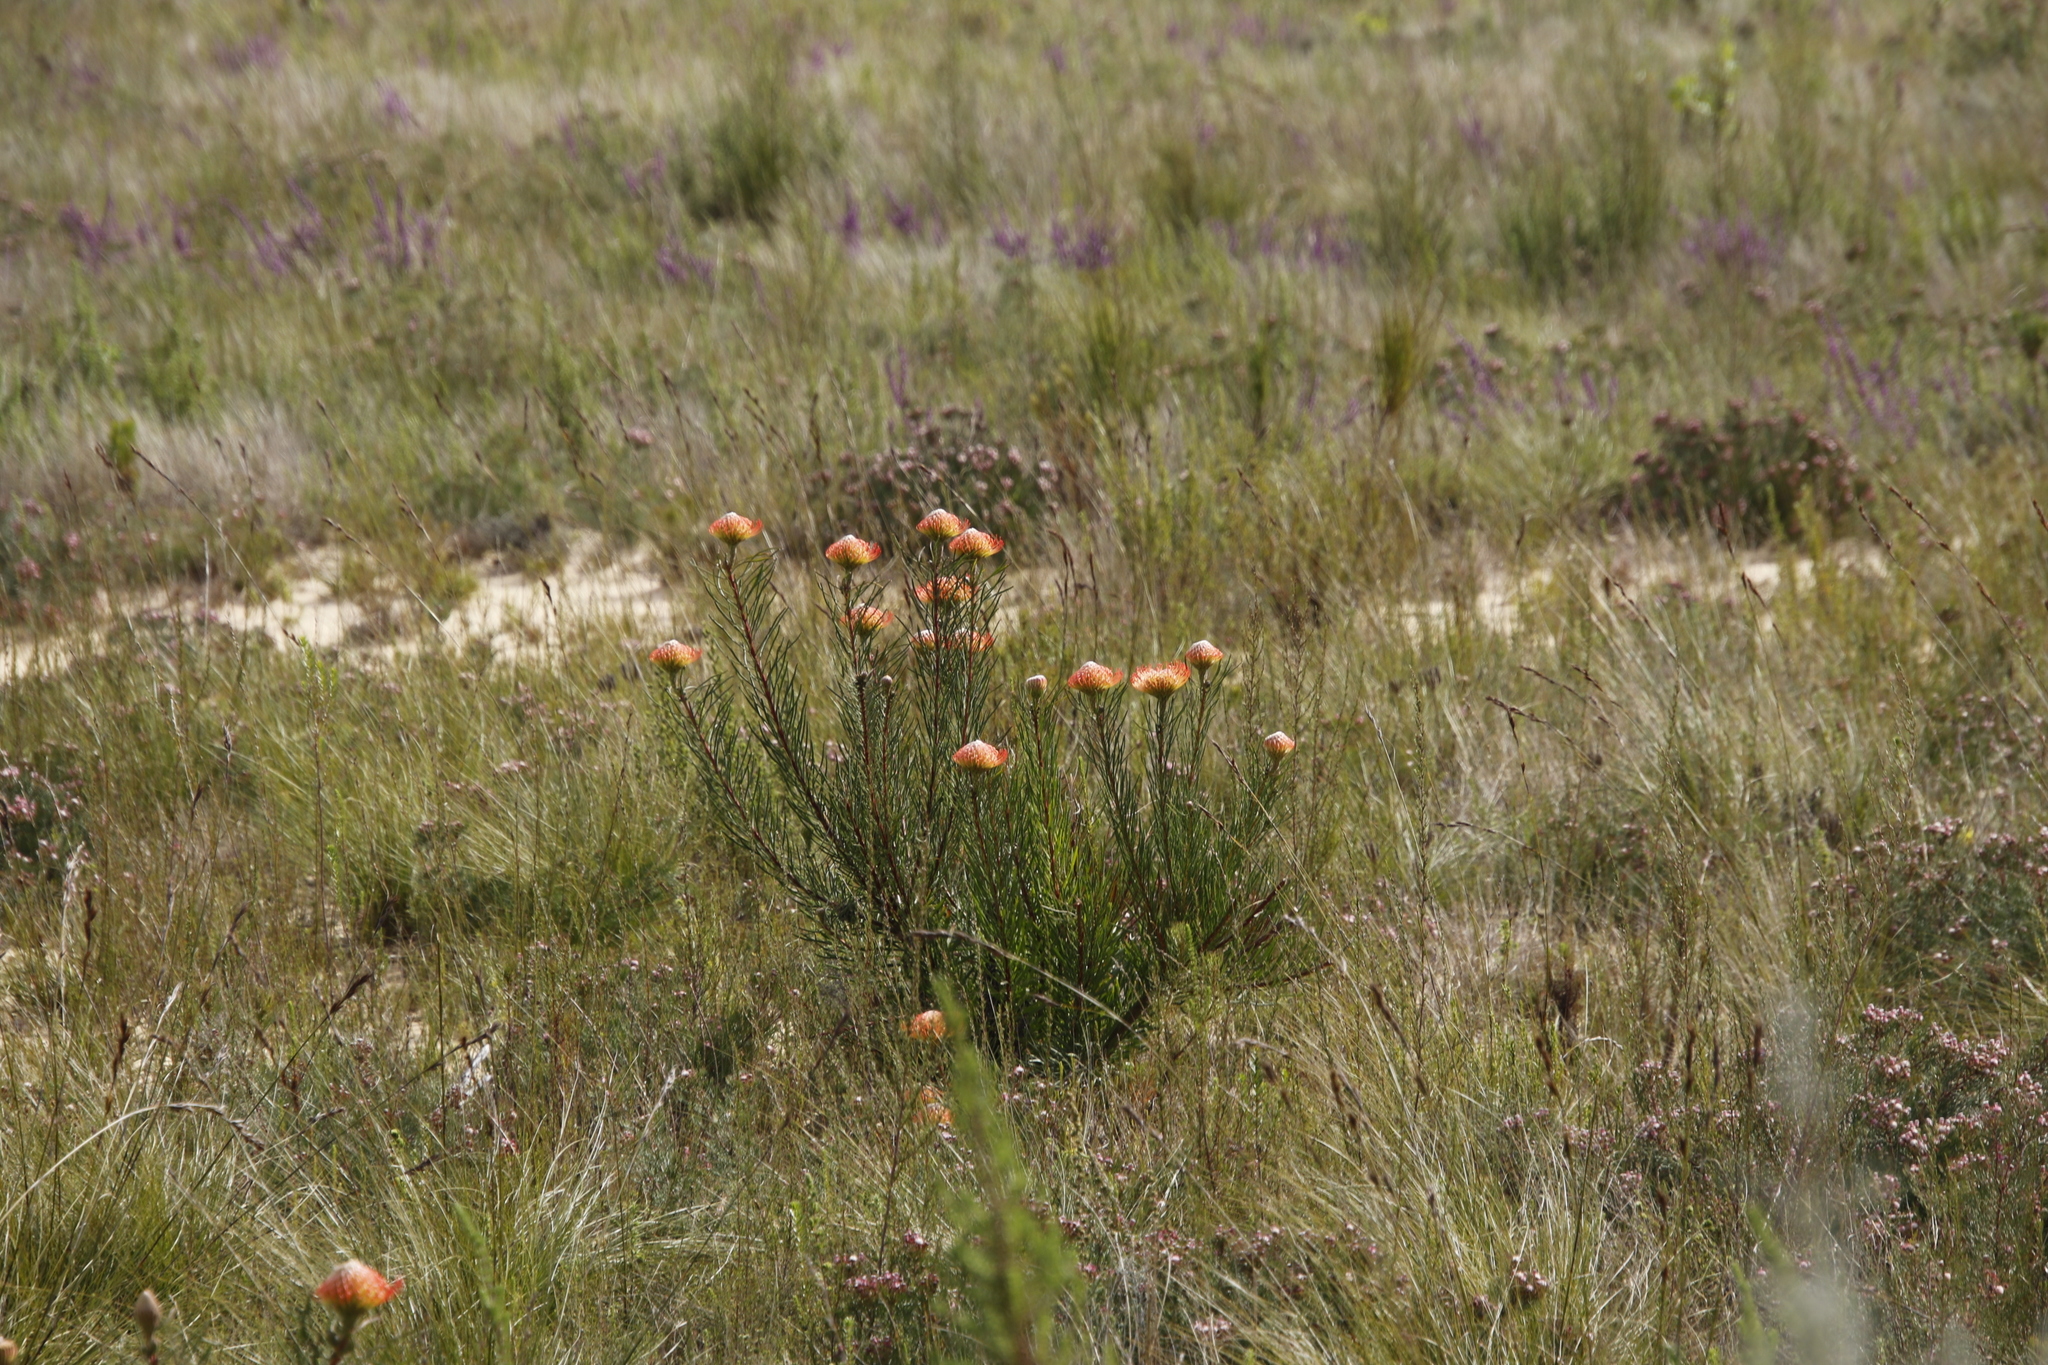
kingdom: Plantae
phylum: Tracheophyta
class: Magnoliopsida
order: Proteales
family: Proteaceae
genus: Leucospermum
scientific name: Leucospermum lineare
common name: Needle-leaf pincushion
